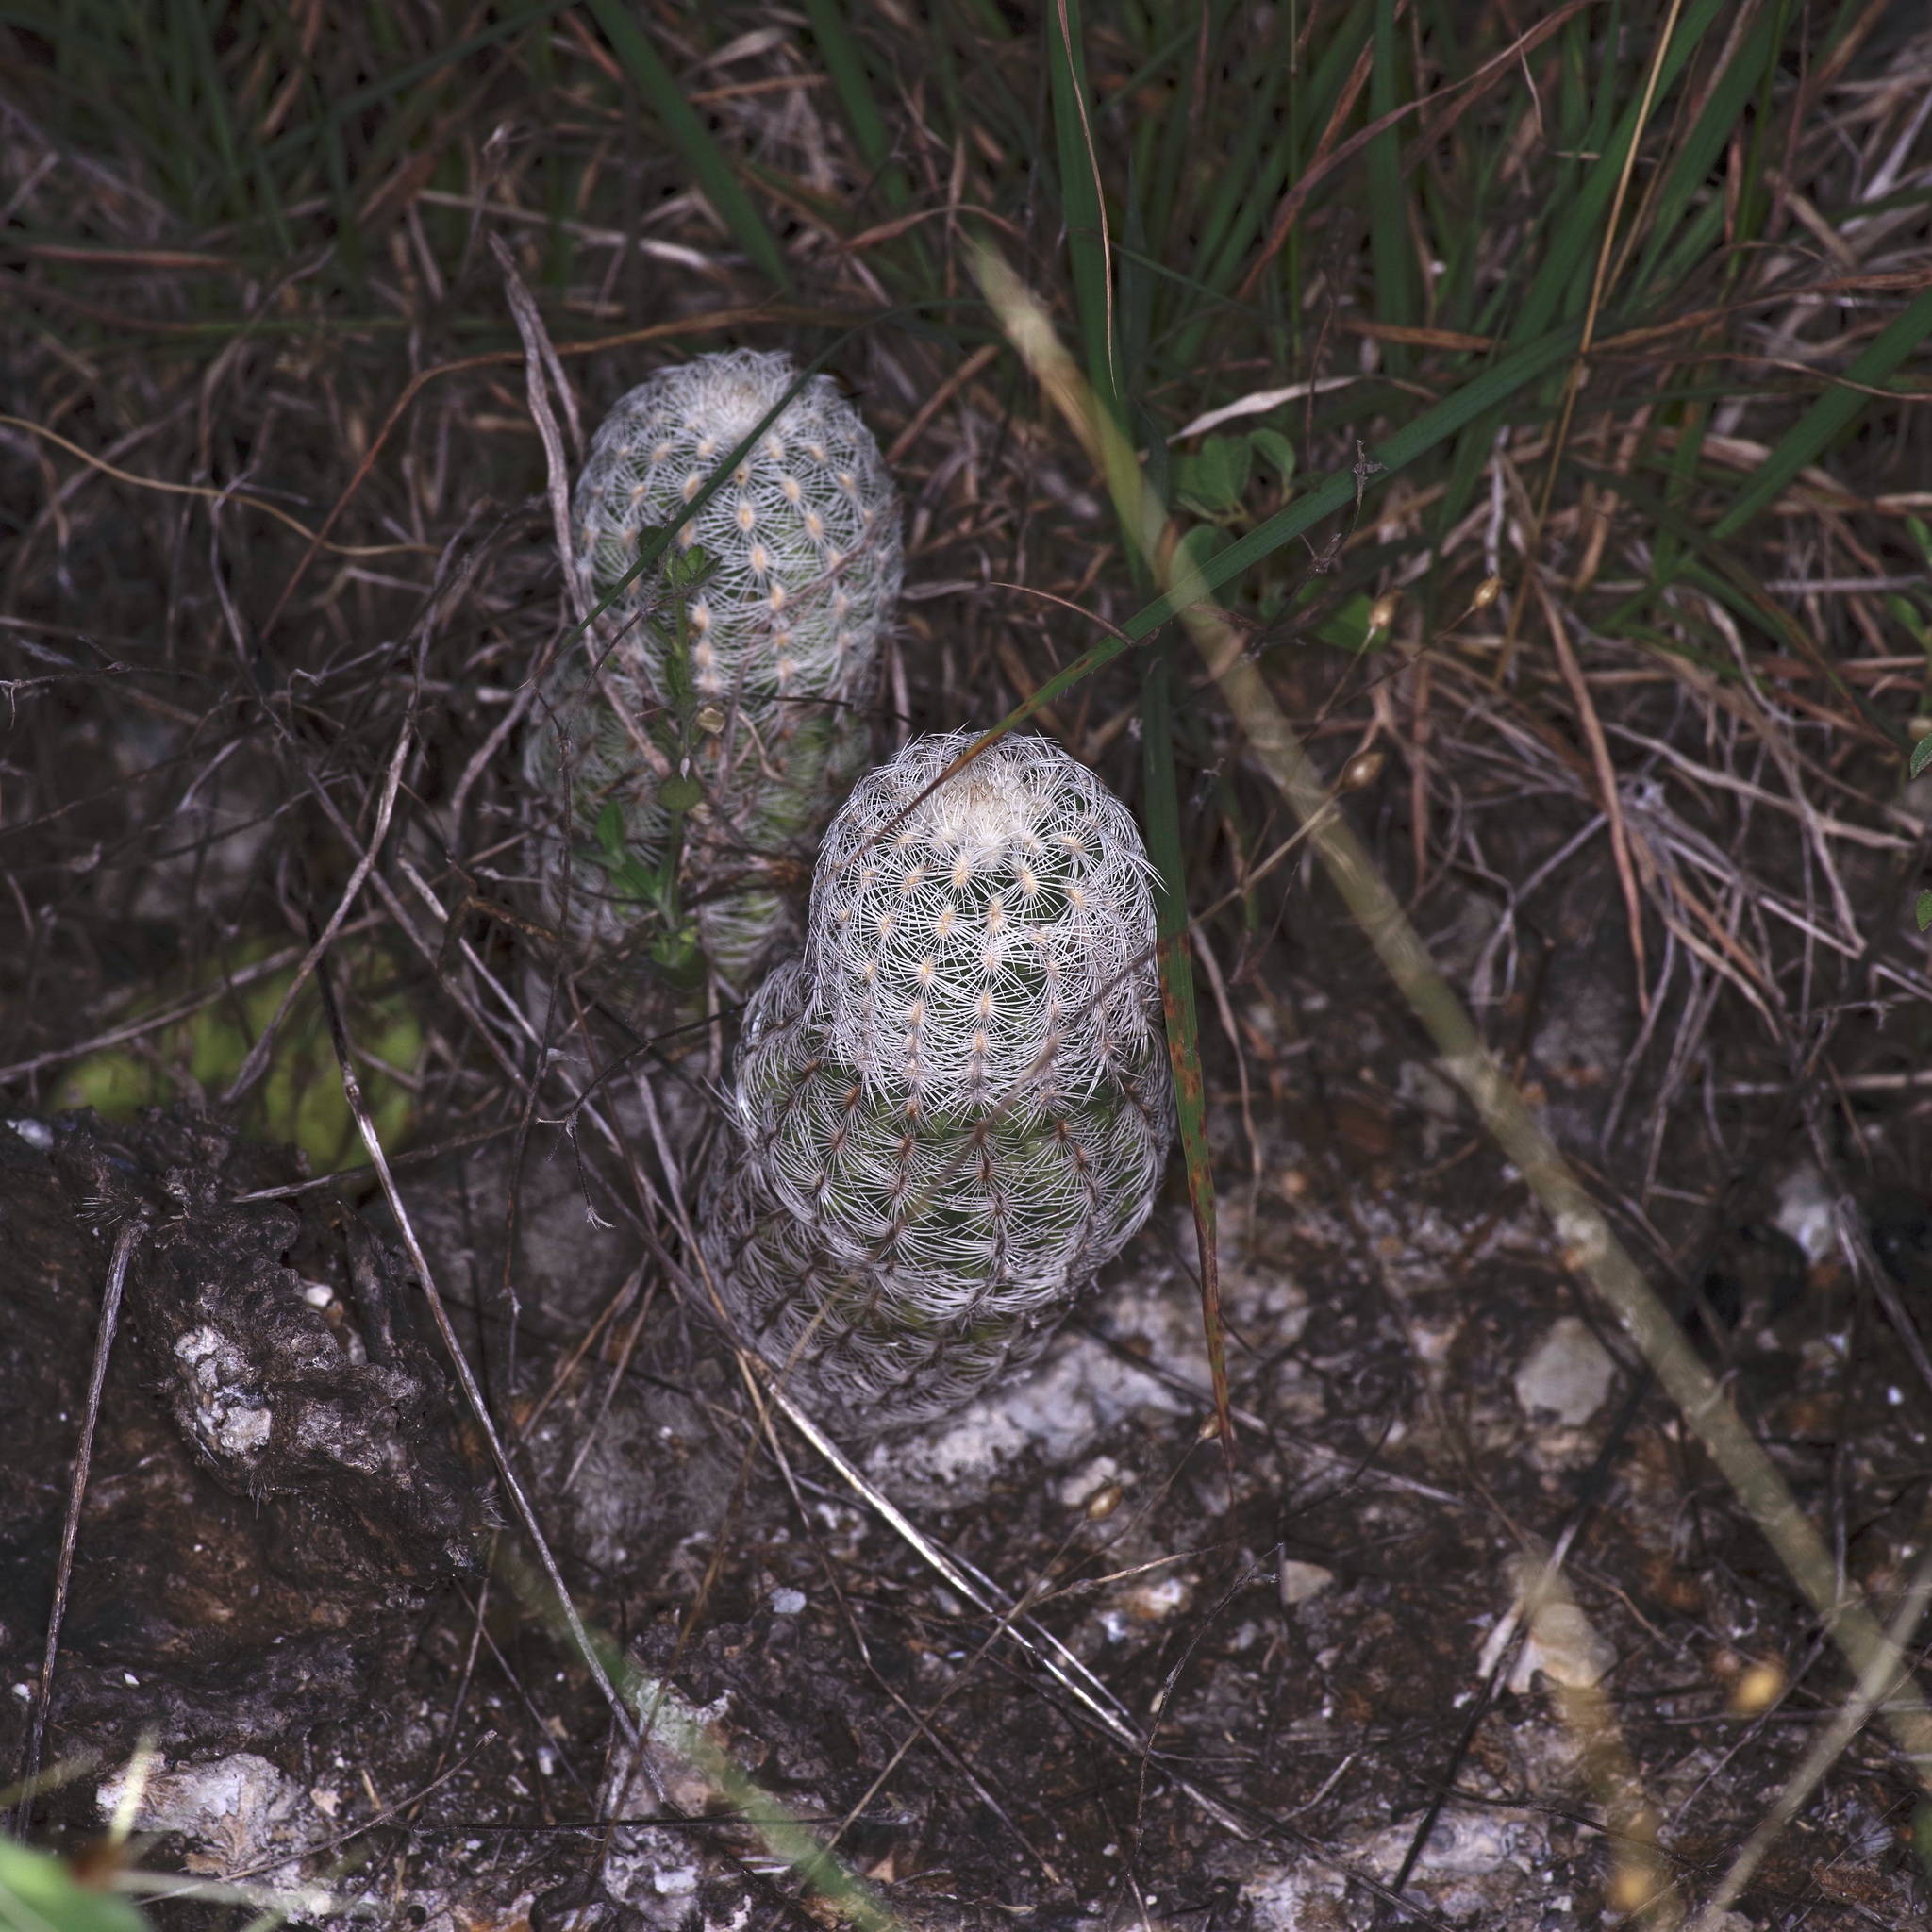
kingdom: Plantae
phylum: Tracheophyta
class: Magnoliopsida
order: Caryophyllales
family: Cactaceae
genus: Echinocereus
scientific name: Echinocereus reichenbachii
